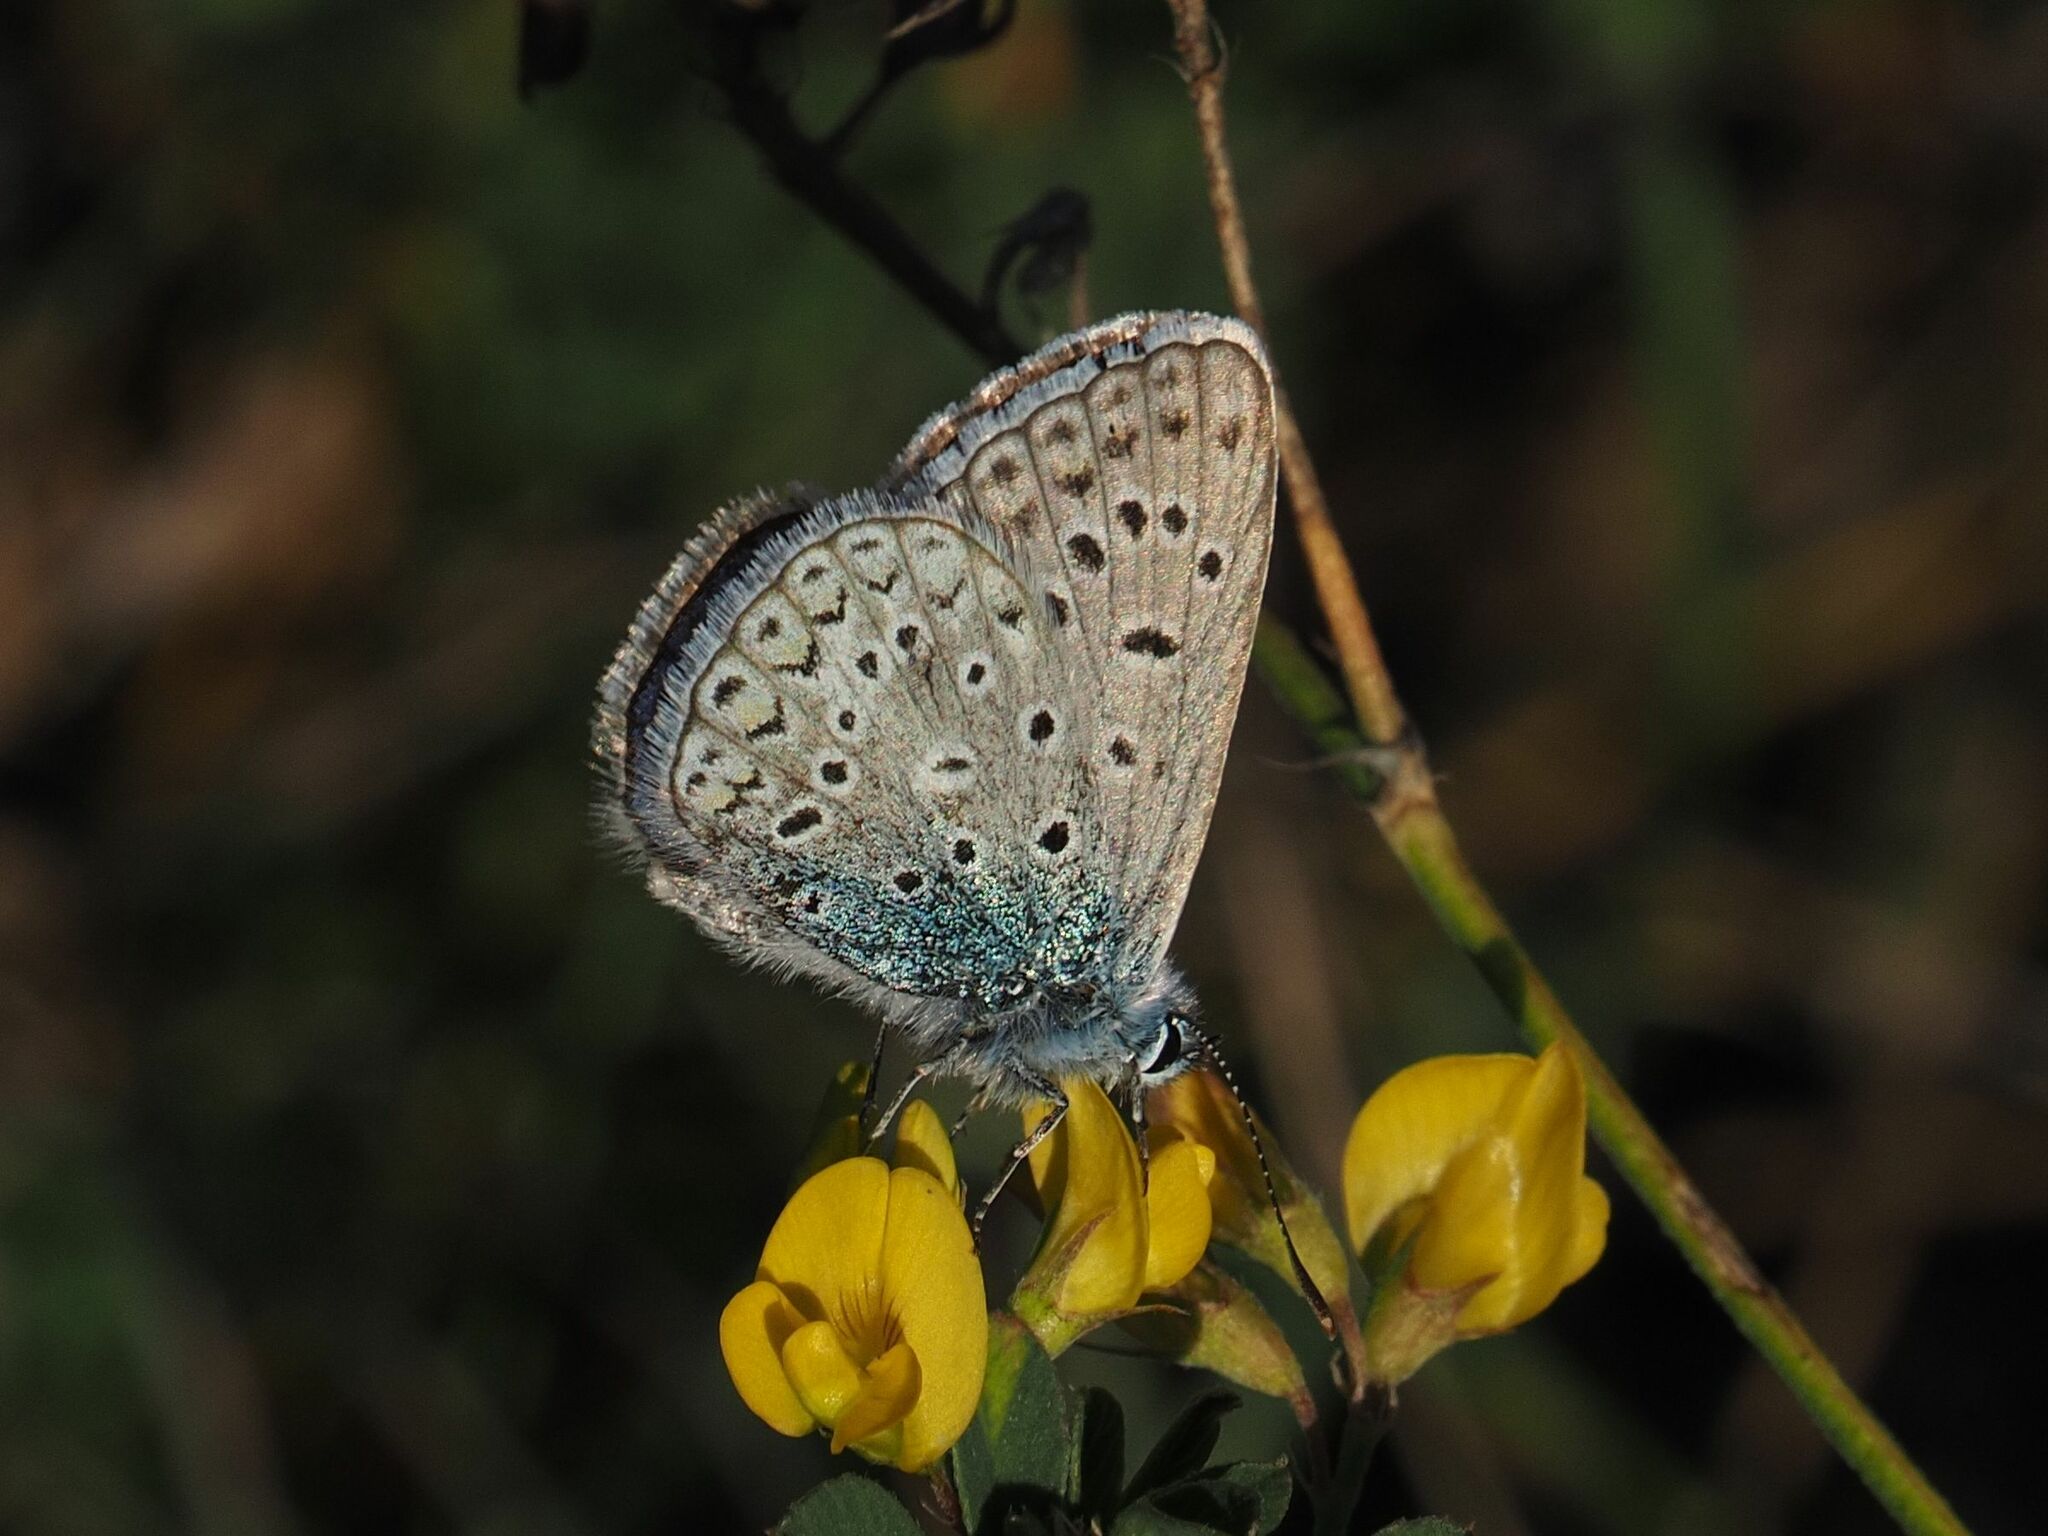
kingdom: Animalia
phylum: Arthropoda
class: Insecta
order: Lepidoptera
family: Lycaenidae
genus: Polyommatus
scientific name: Polyommatus icarus
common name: Common blue
